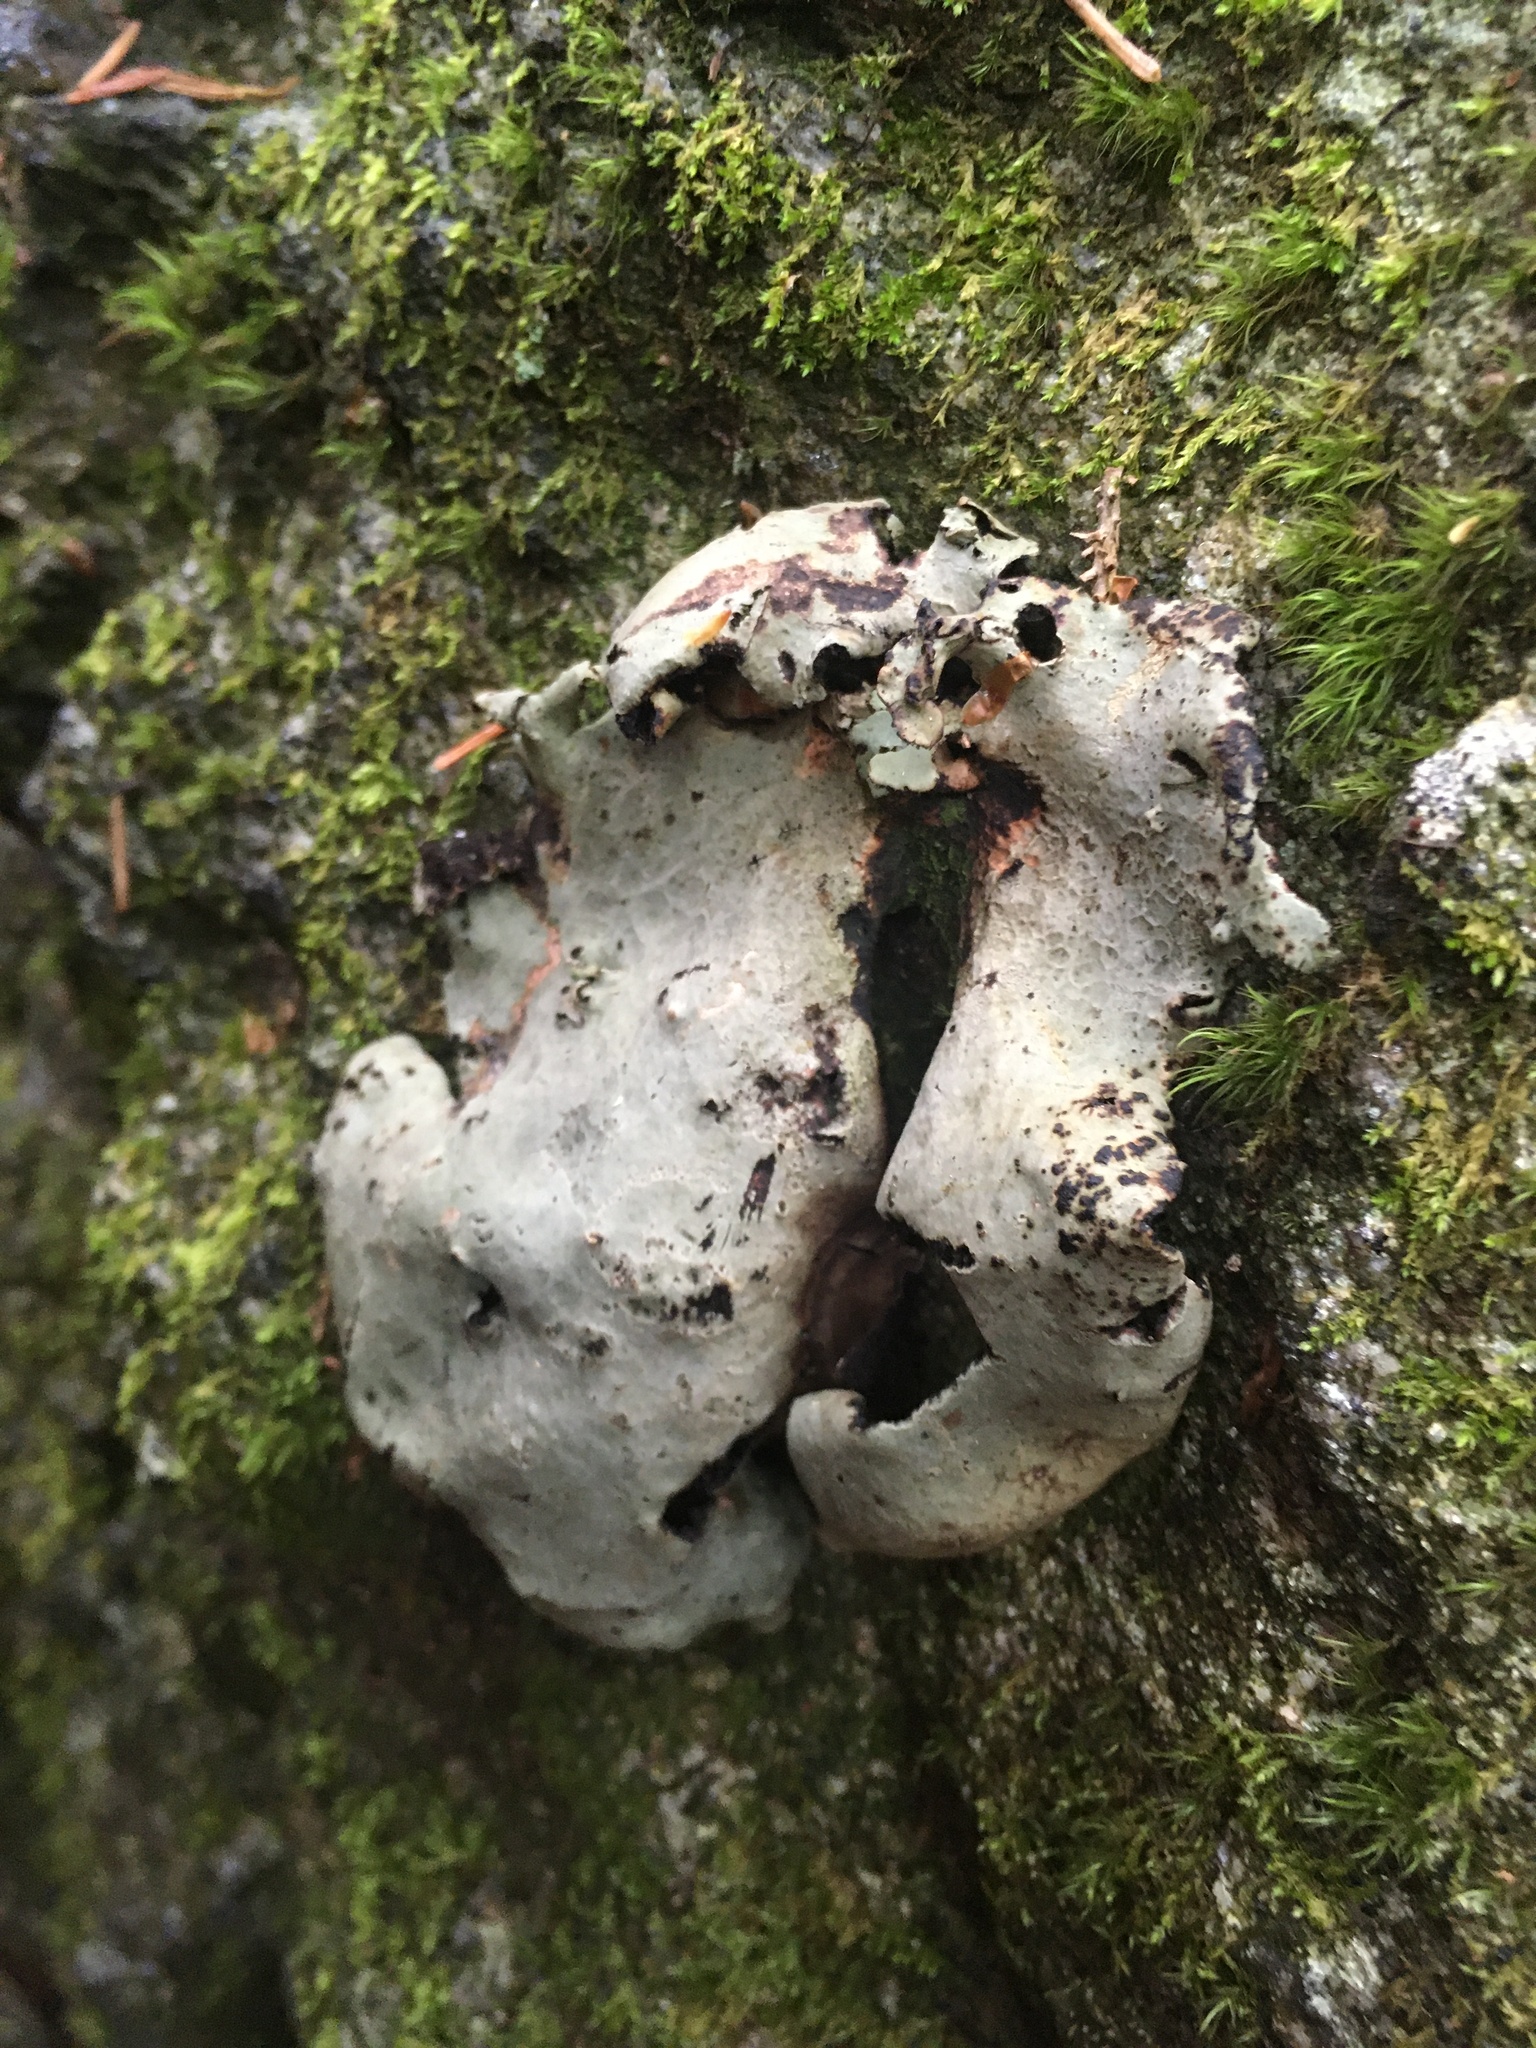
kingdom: Fungi
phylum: Ascomycota
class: Lecanoromycetes
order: Umbilicariales
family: Umbilicariaceae
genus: Umbilicaria
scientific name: Umbilicaria mammulata
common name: Smooth rock tripe
